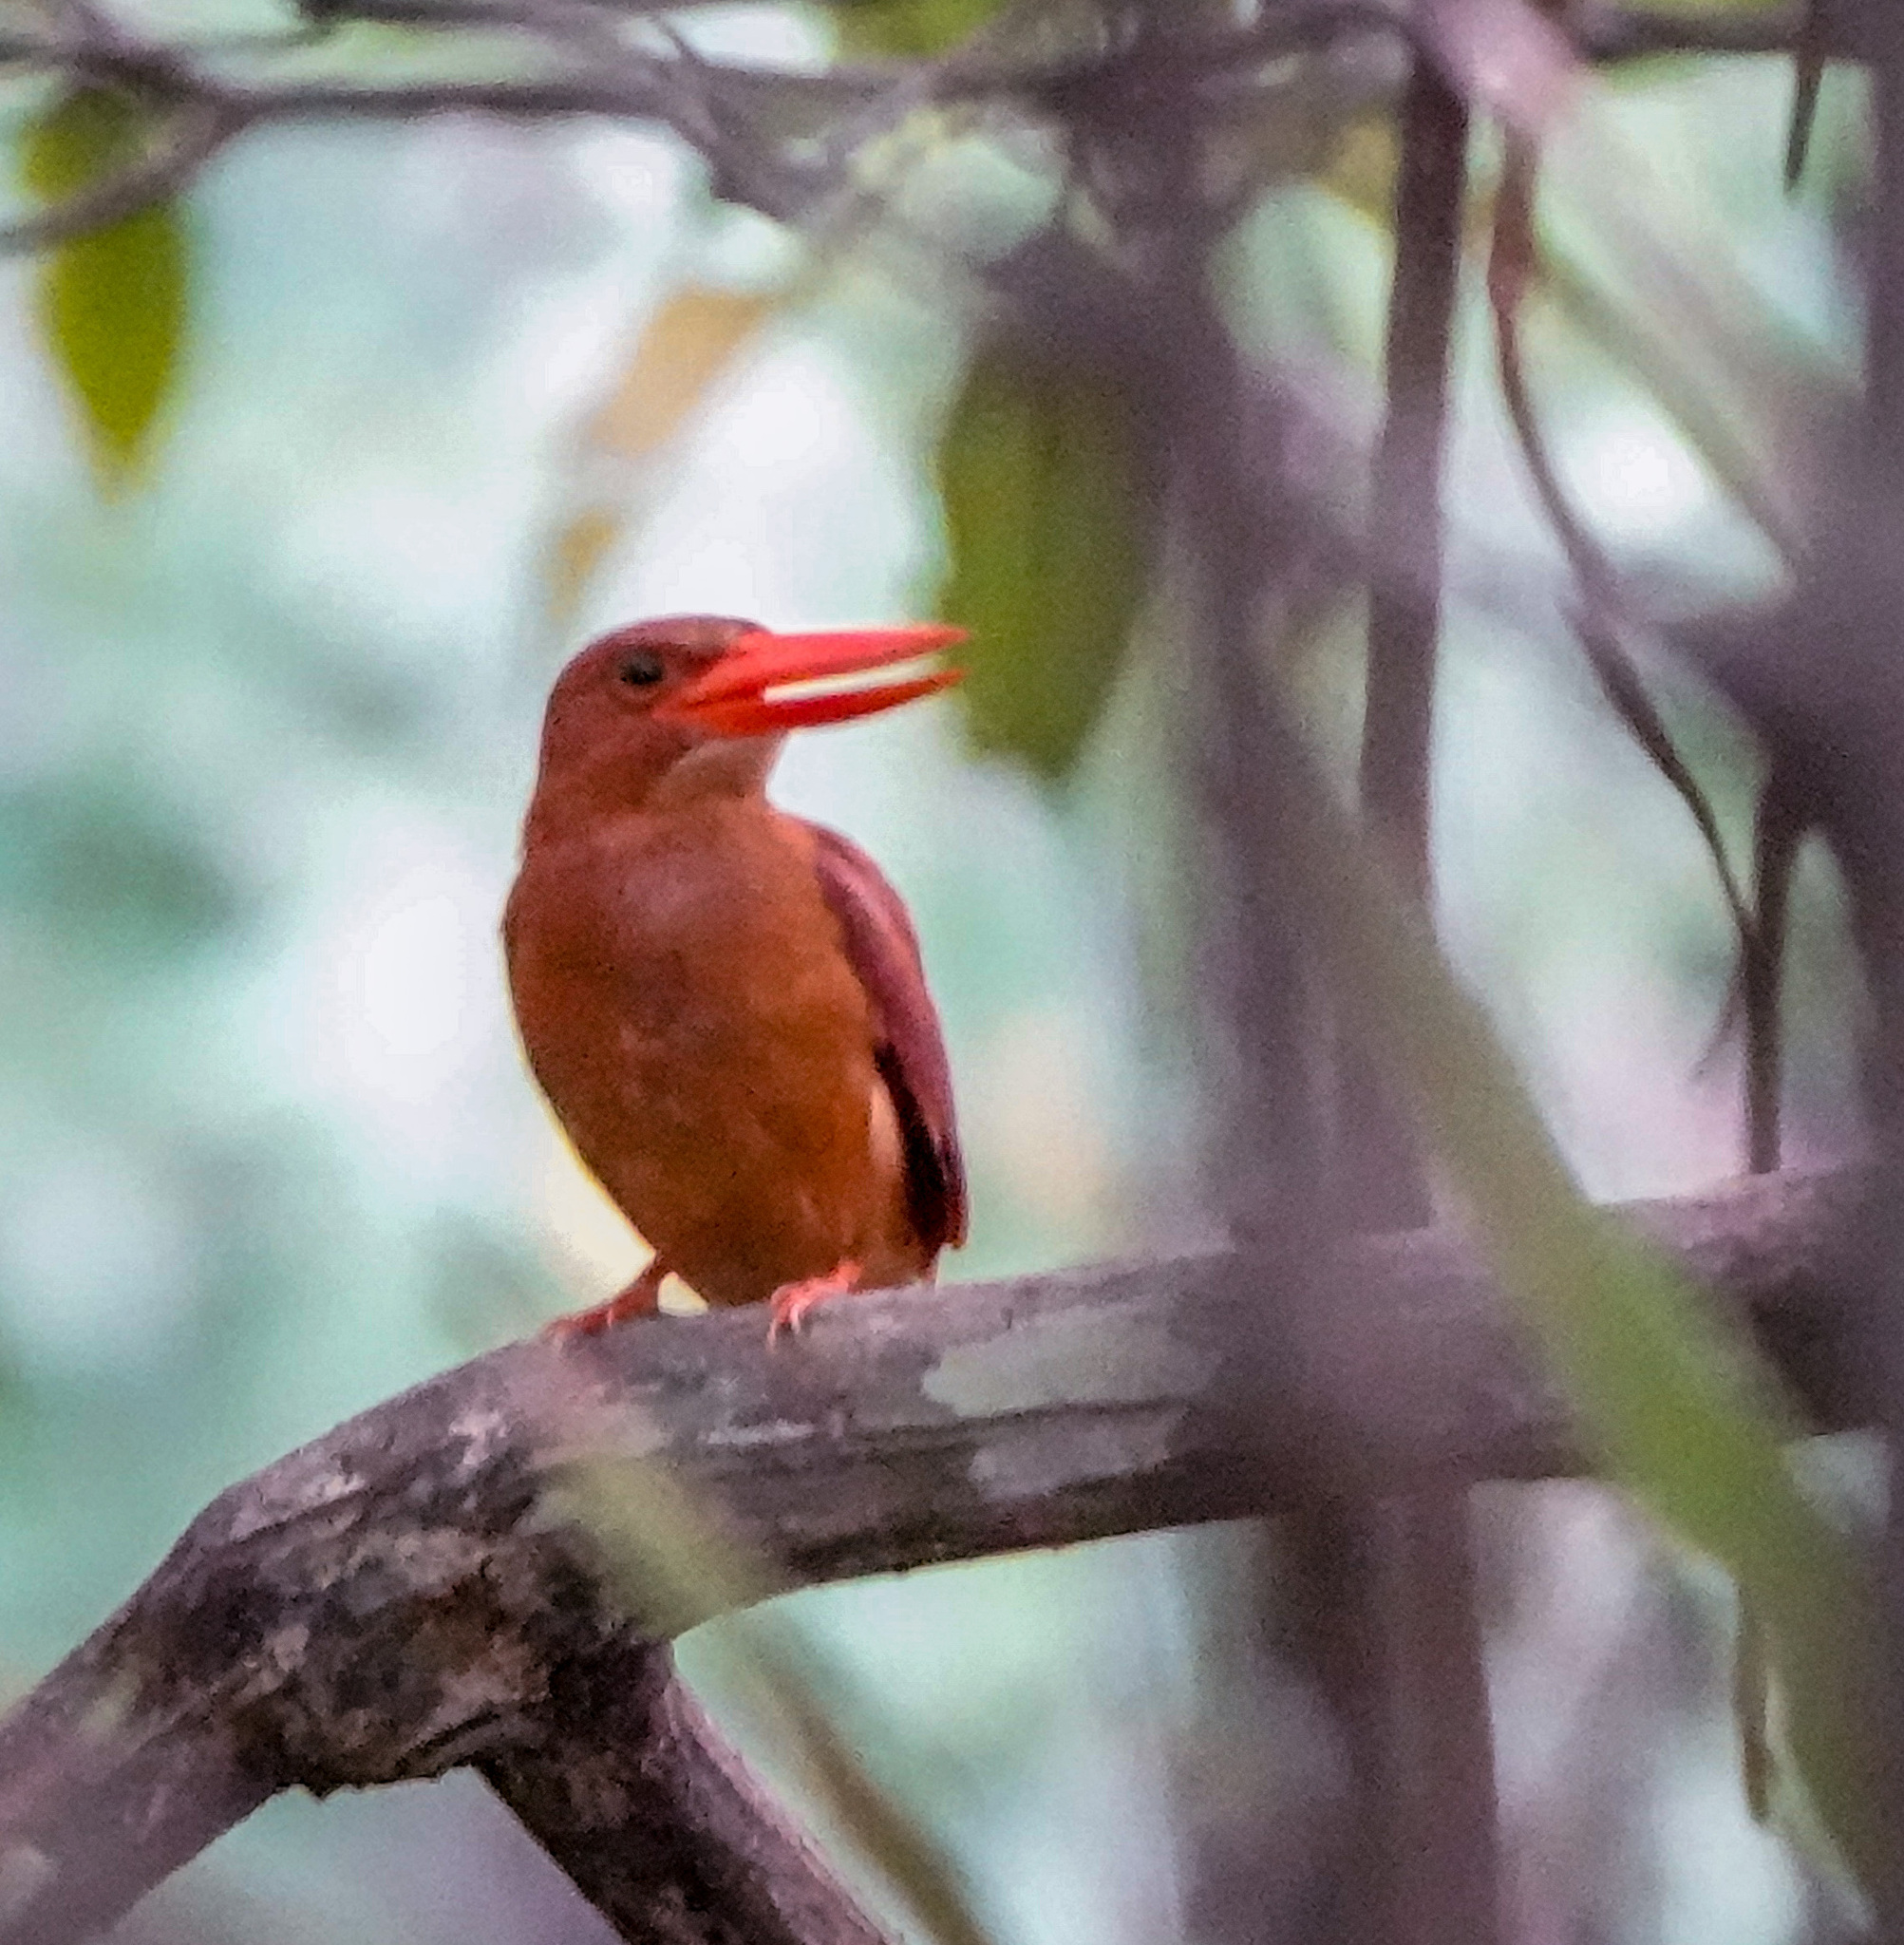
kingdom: Animalia
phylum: Chordata
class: Aves
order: Coraciiformes
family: Alcedinidae
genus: Halcyon
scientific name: Halcyon coromanda
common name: Ruddy kingfisher
